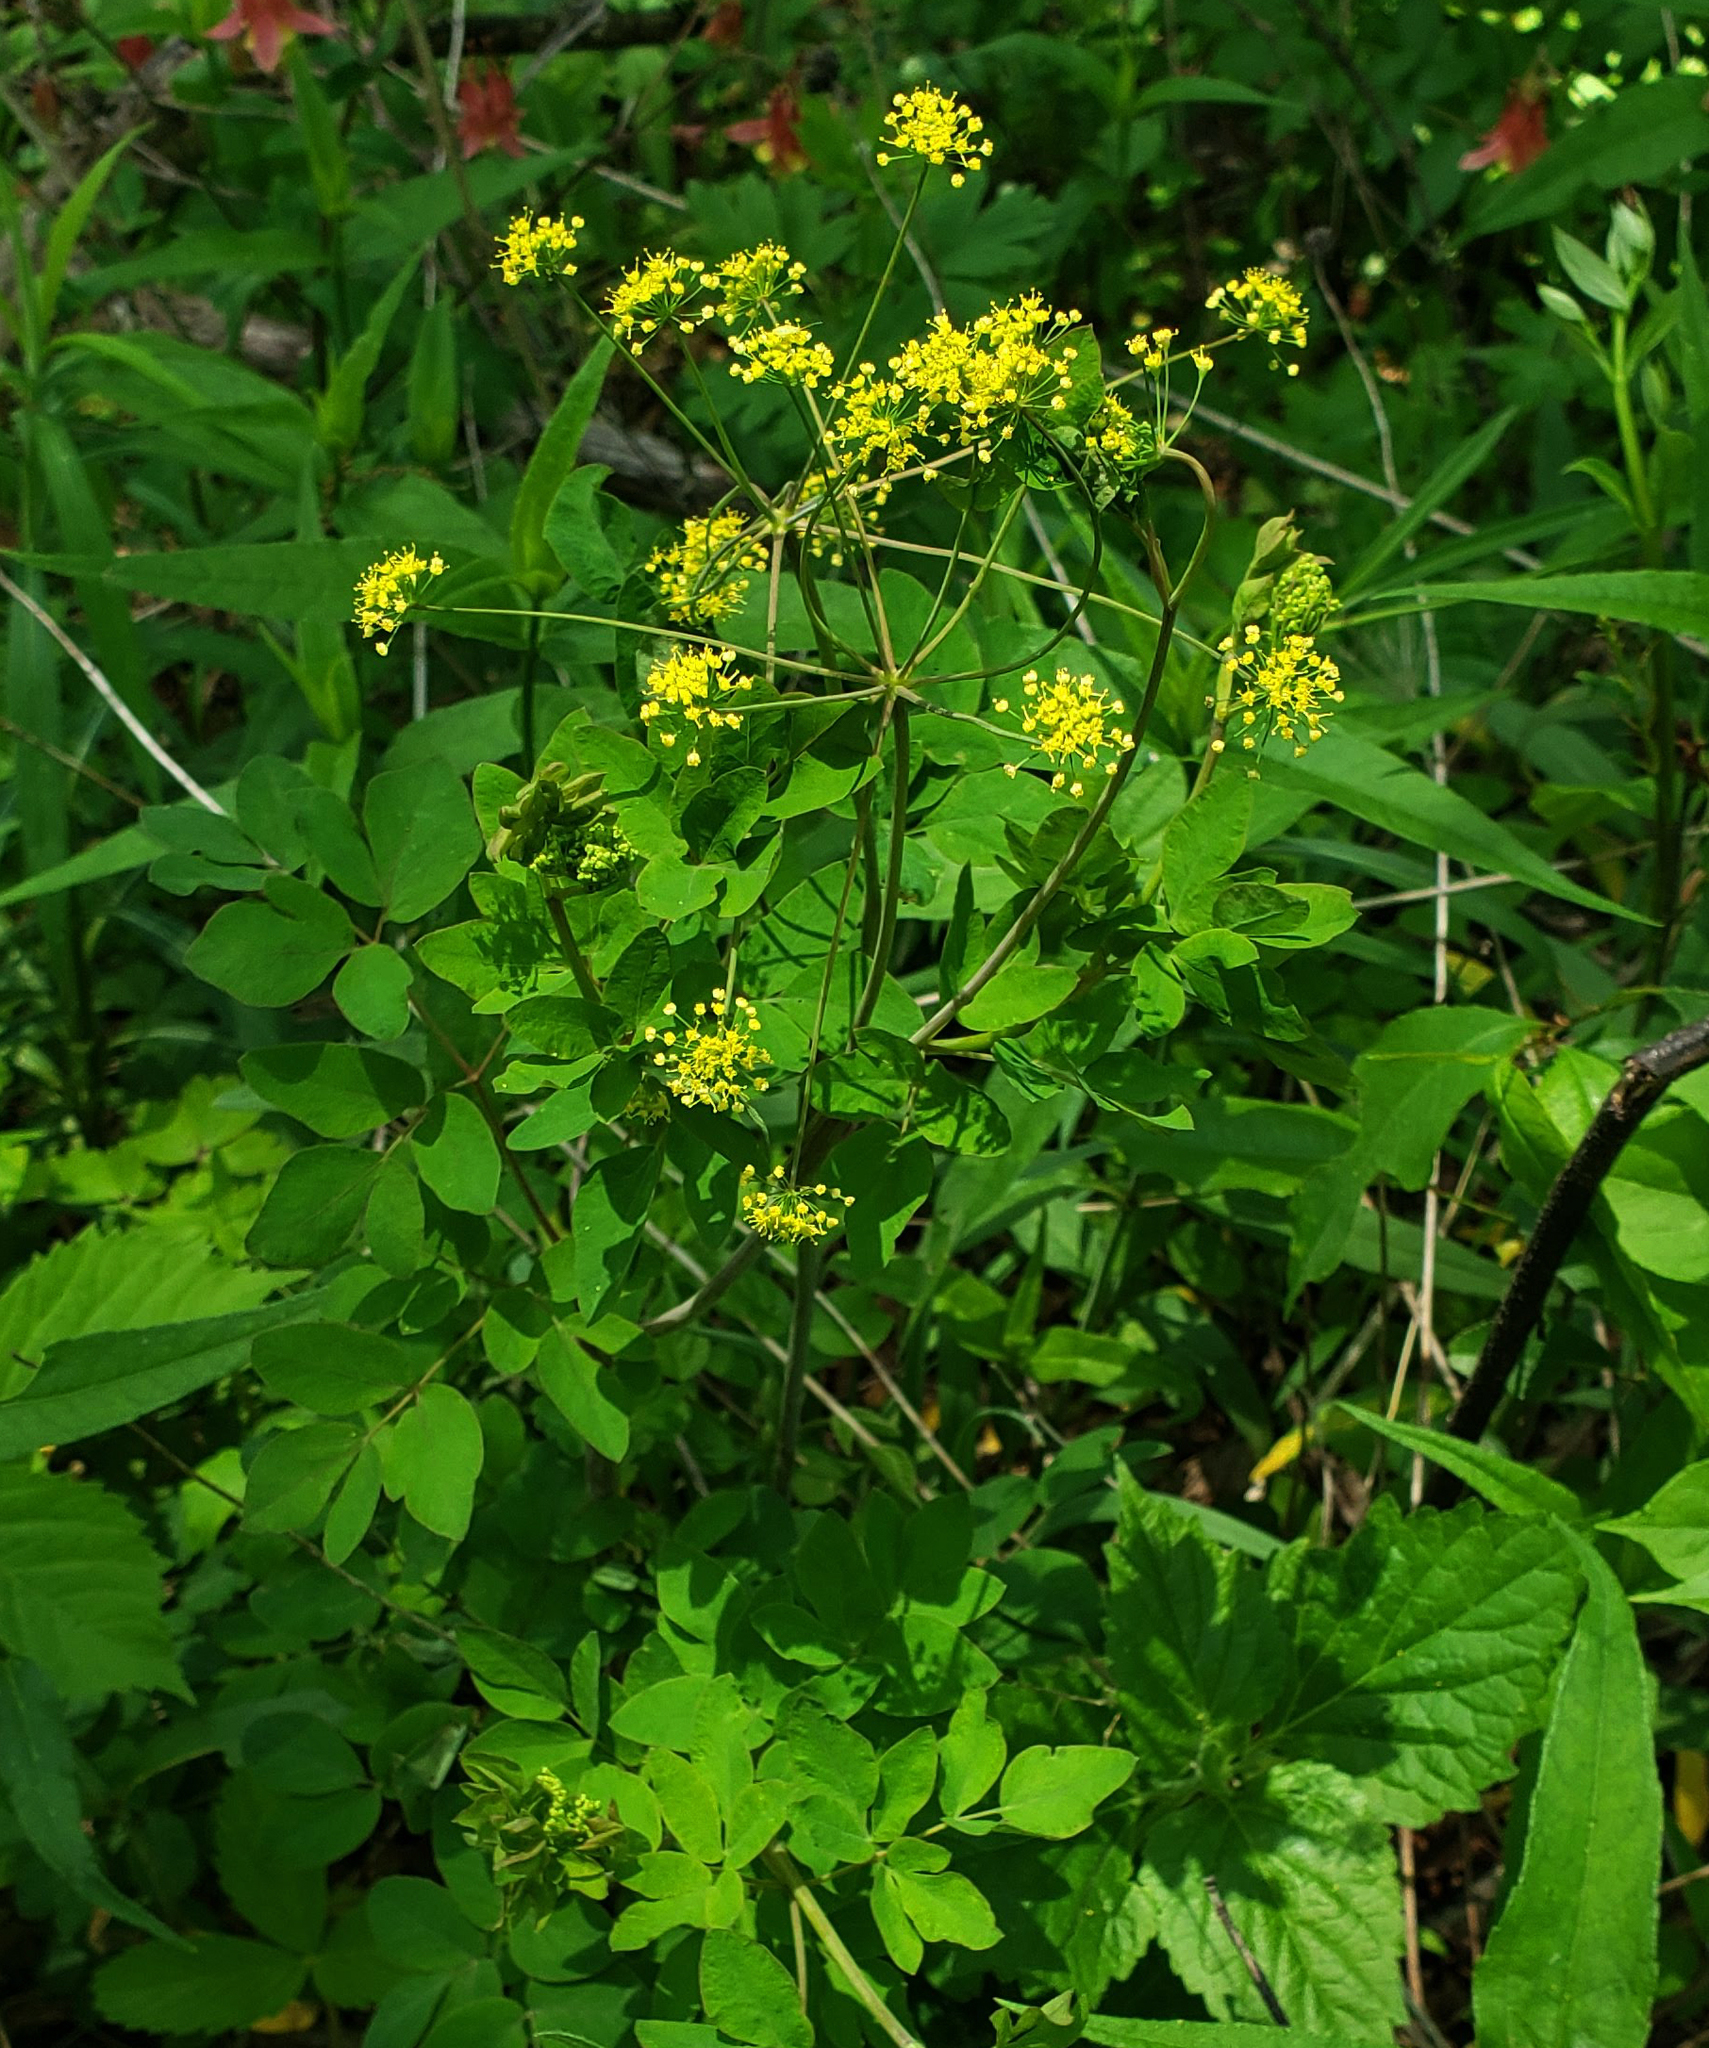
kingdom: Plantae
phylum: Tracheophyta
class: Magnoliopsida
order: Apiales
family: Apiaceae
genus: Taenidia
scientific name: Taenidia integerrima
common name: Golden alexander
